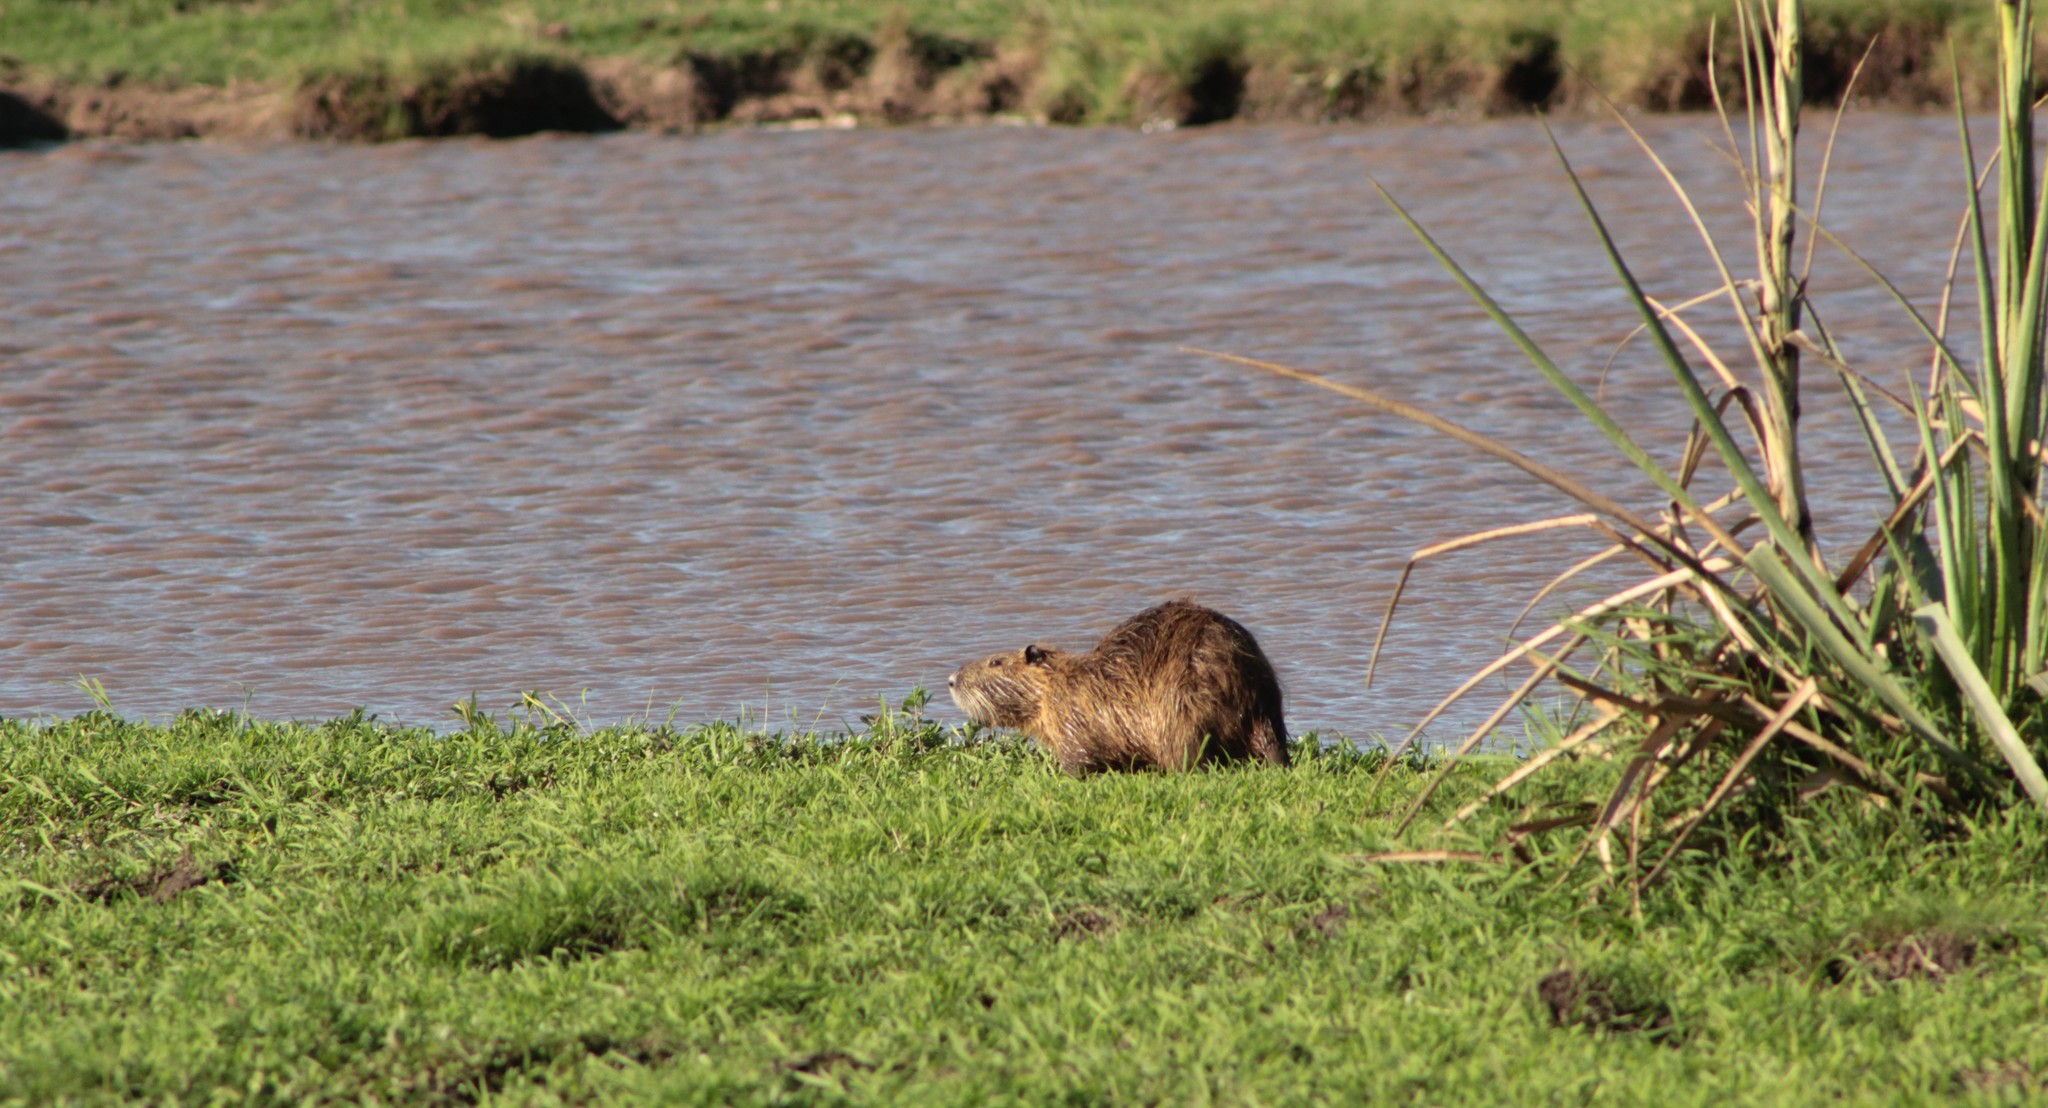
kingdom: Animalia
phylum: Chordata
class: Mammalia
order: Rodentia
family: Myocastoridae
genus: Myocastor
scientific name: Myocastor coypus
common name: Coypu
